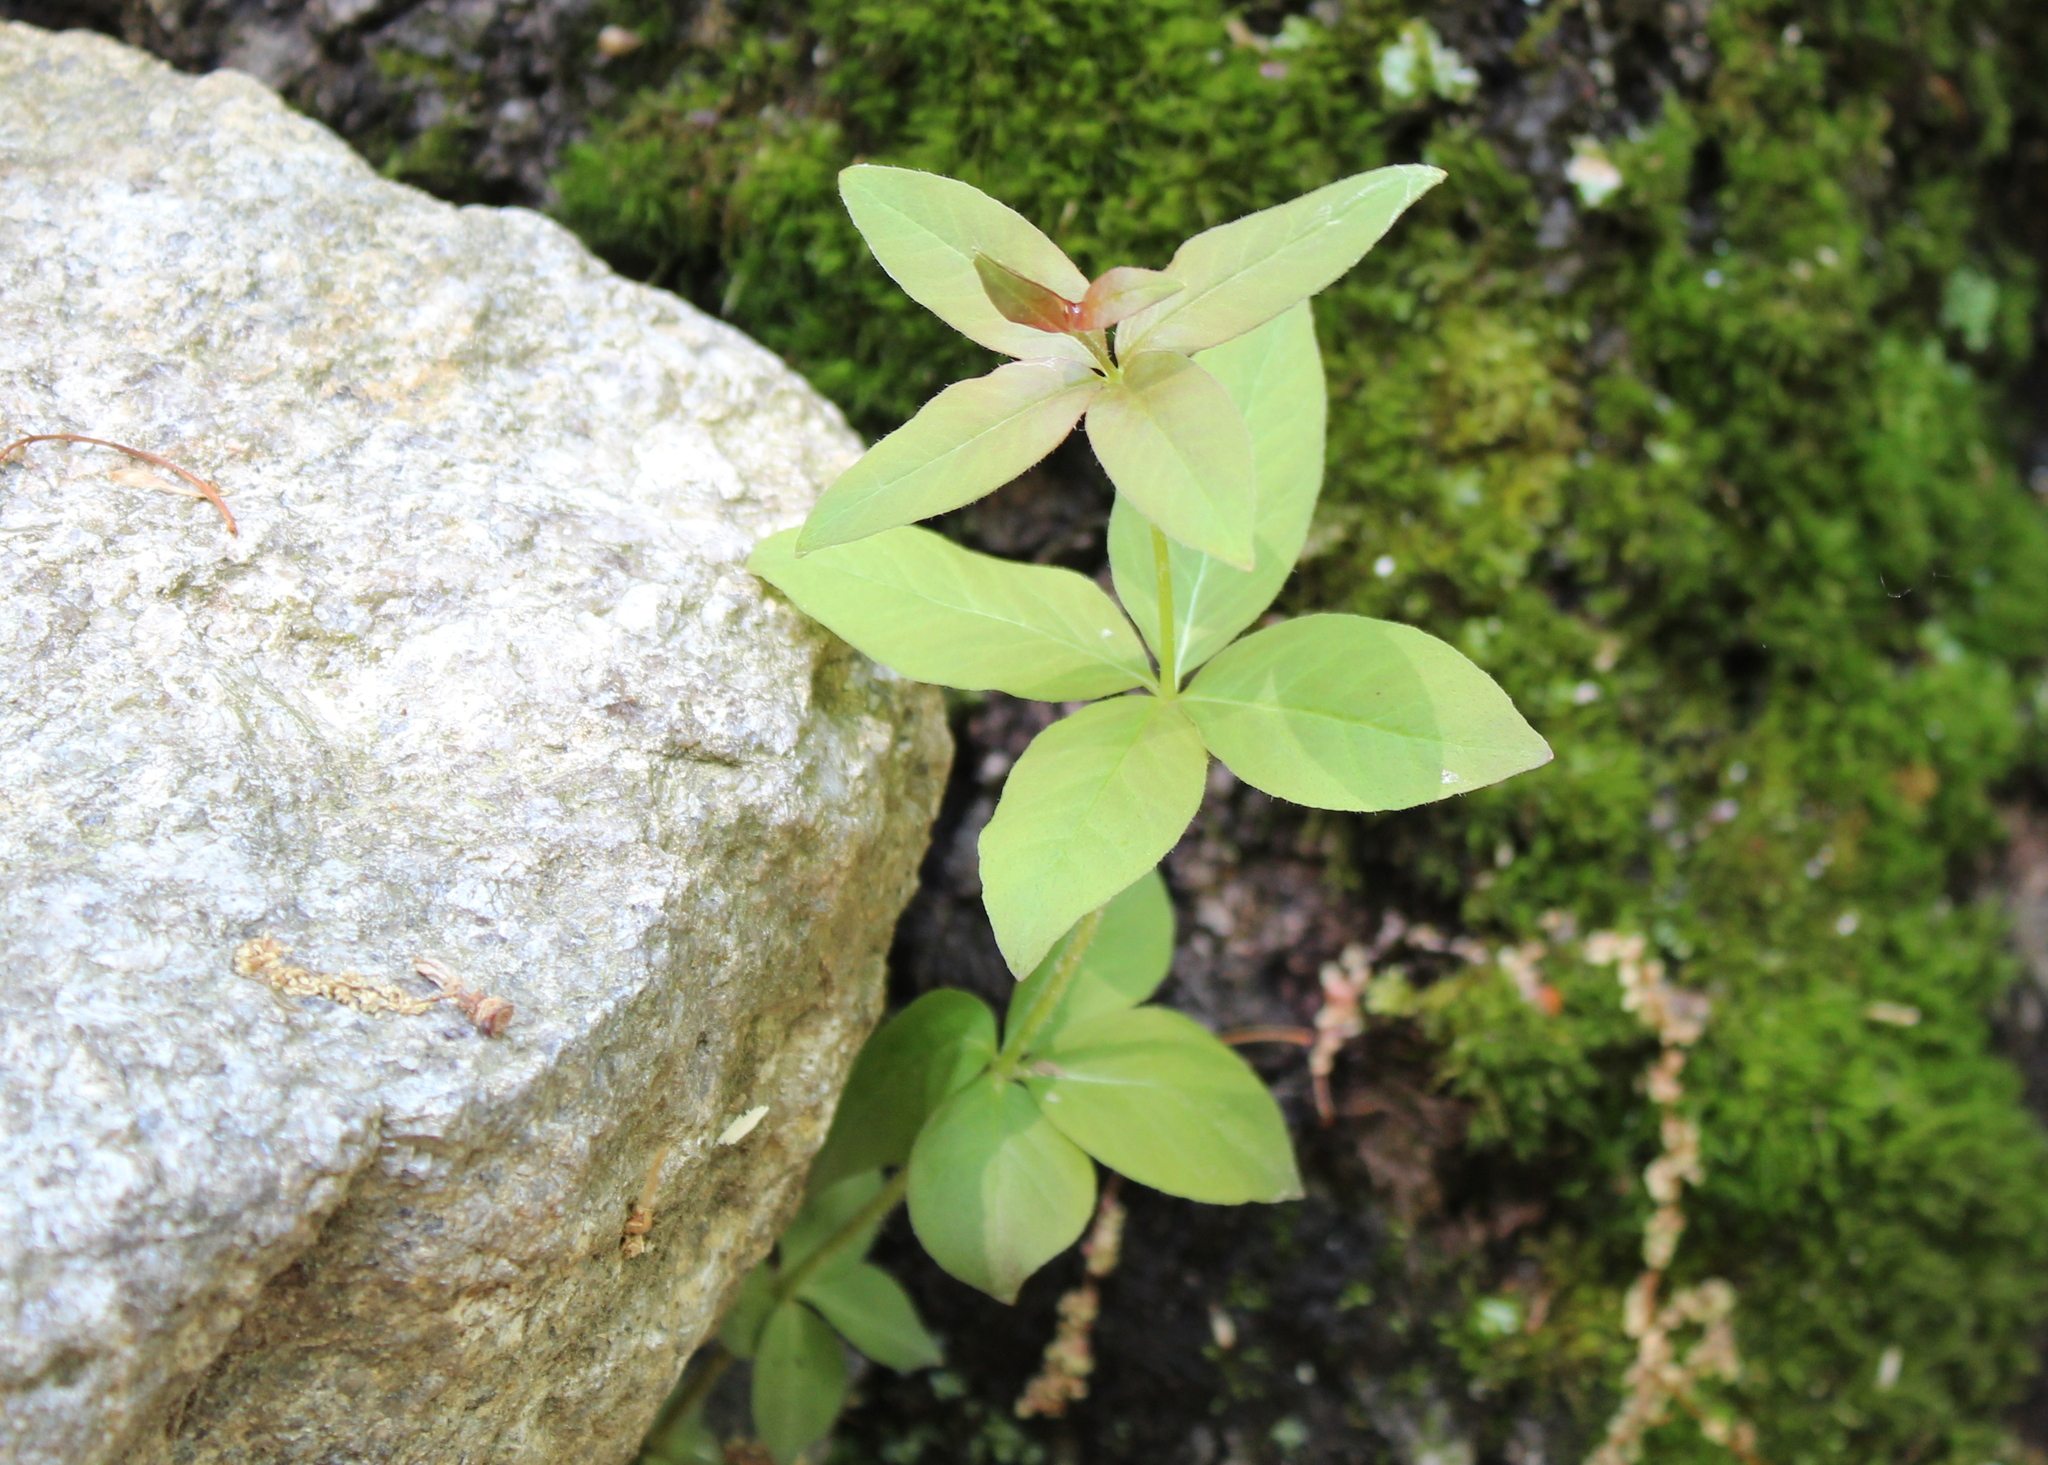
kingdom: Plantae
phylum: Tracheophyta
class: Magnoliopsida
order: Ericales
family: Primulaceae
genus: Lysimachia
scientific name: Lysimachia quadrifolia
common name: Whorled loosestrife
